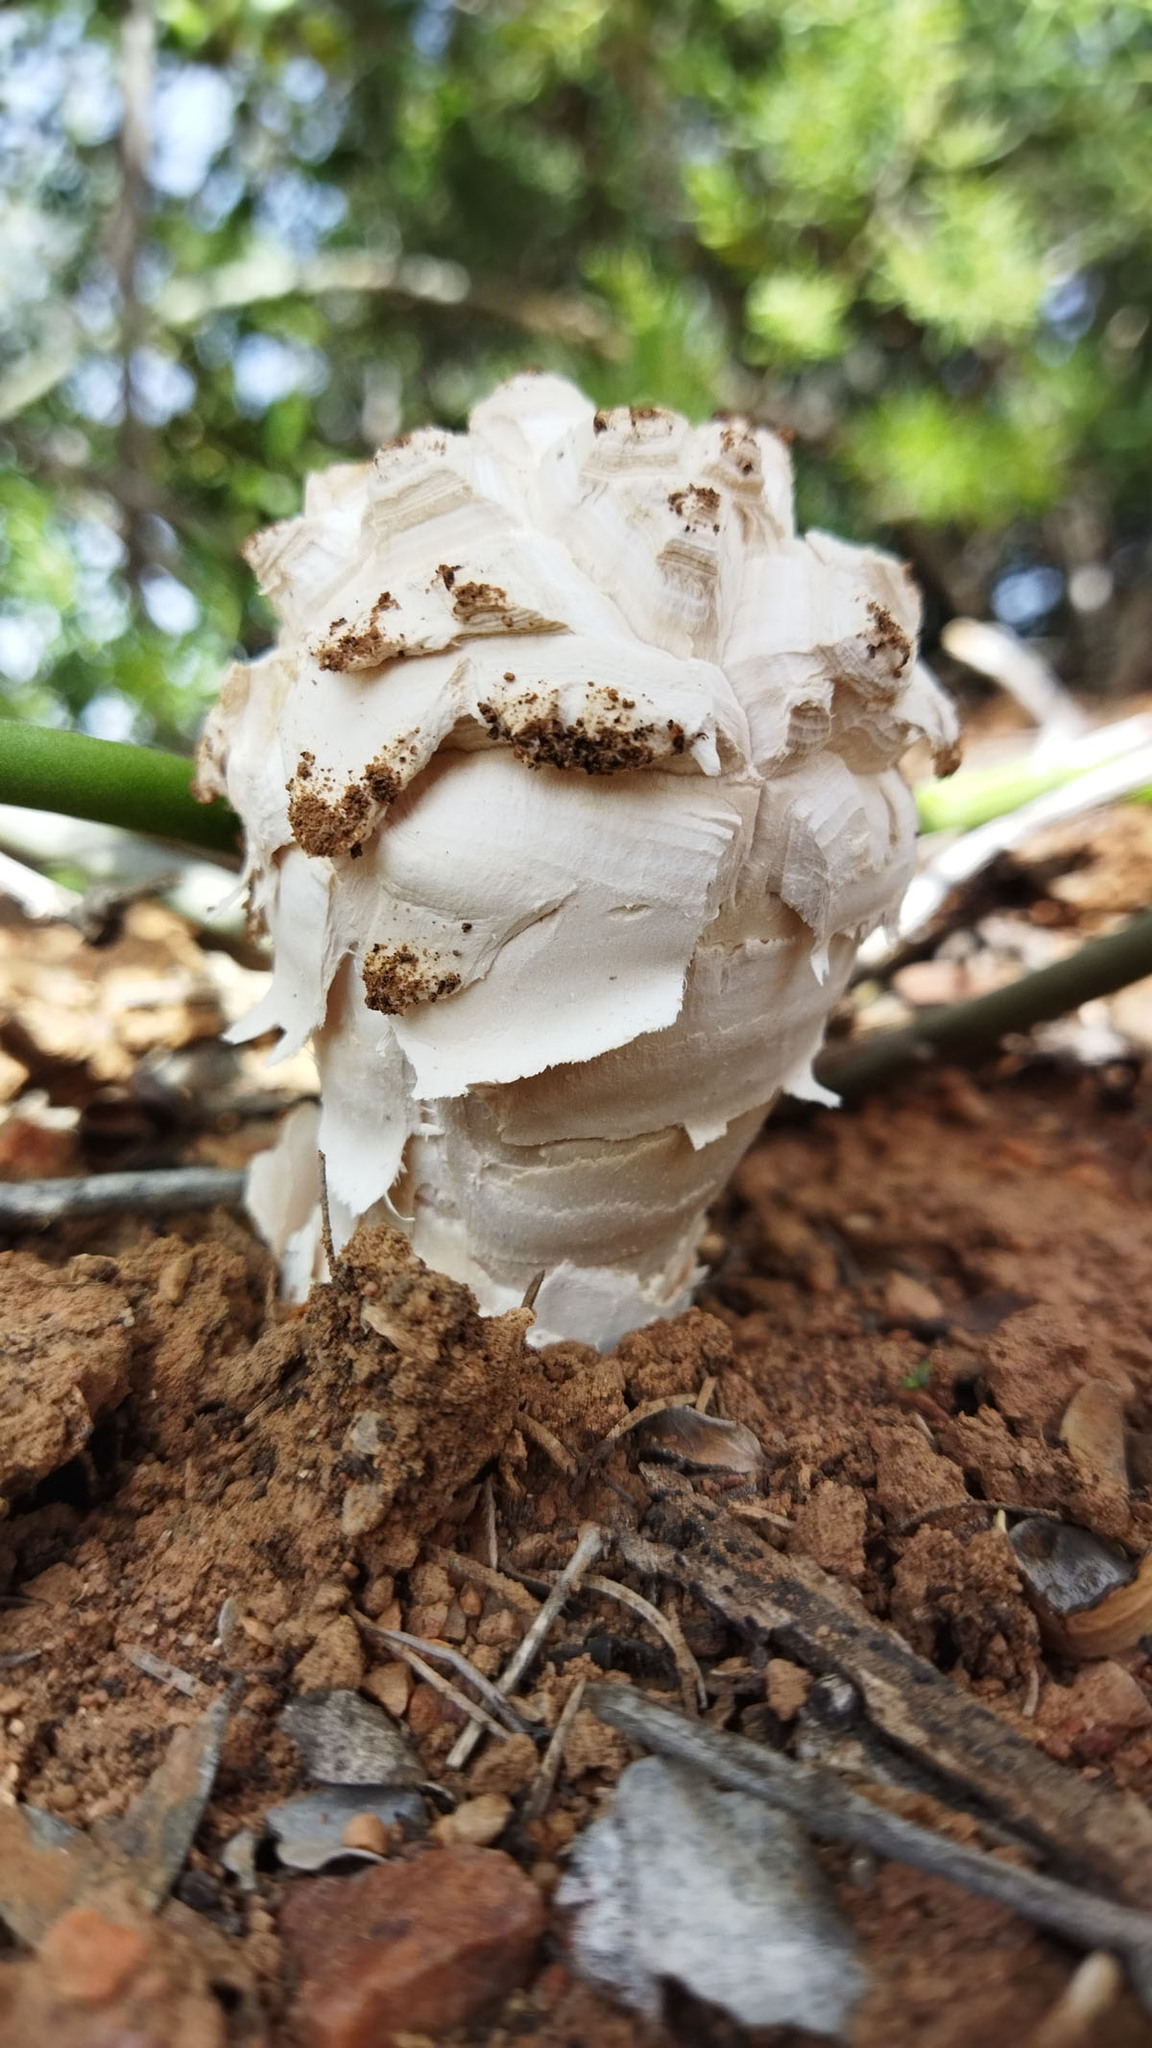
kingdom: Fungi
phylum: Basidiomycota
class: Agaricomycetes
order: Agaricales
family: Agaricaceae
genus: Phellorinia
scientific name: Phellorinia herculeana
